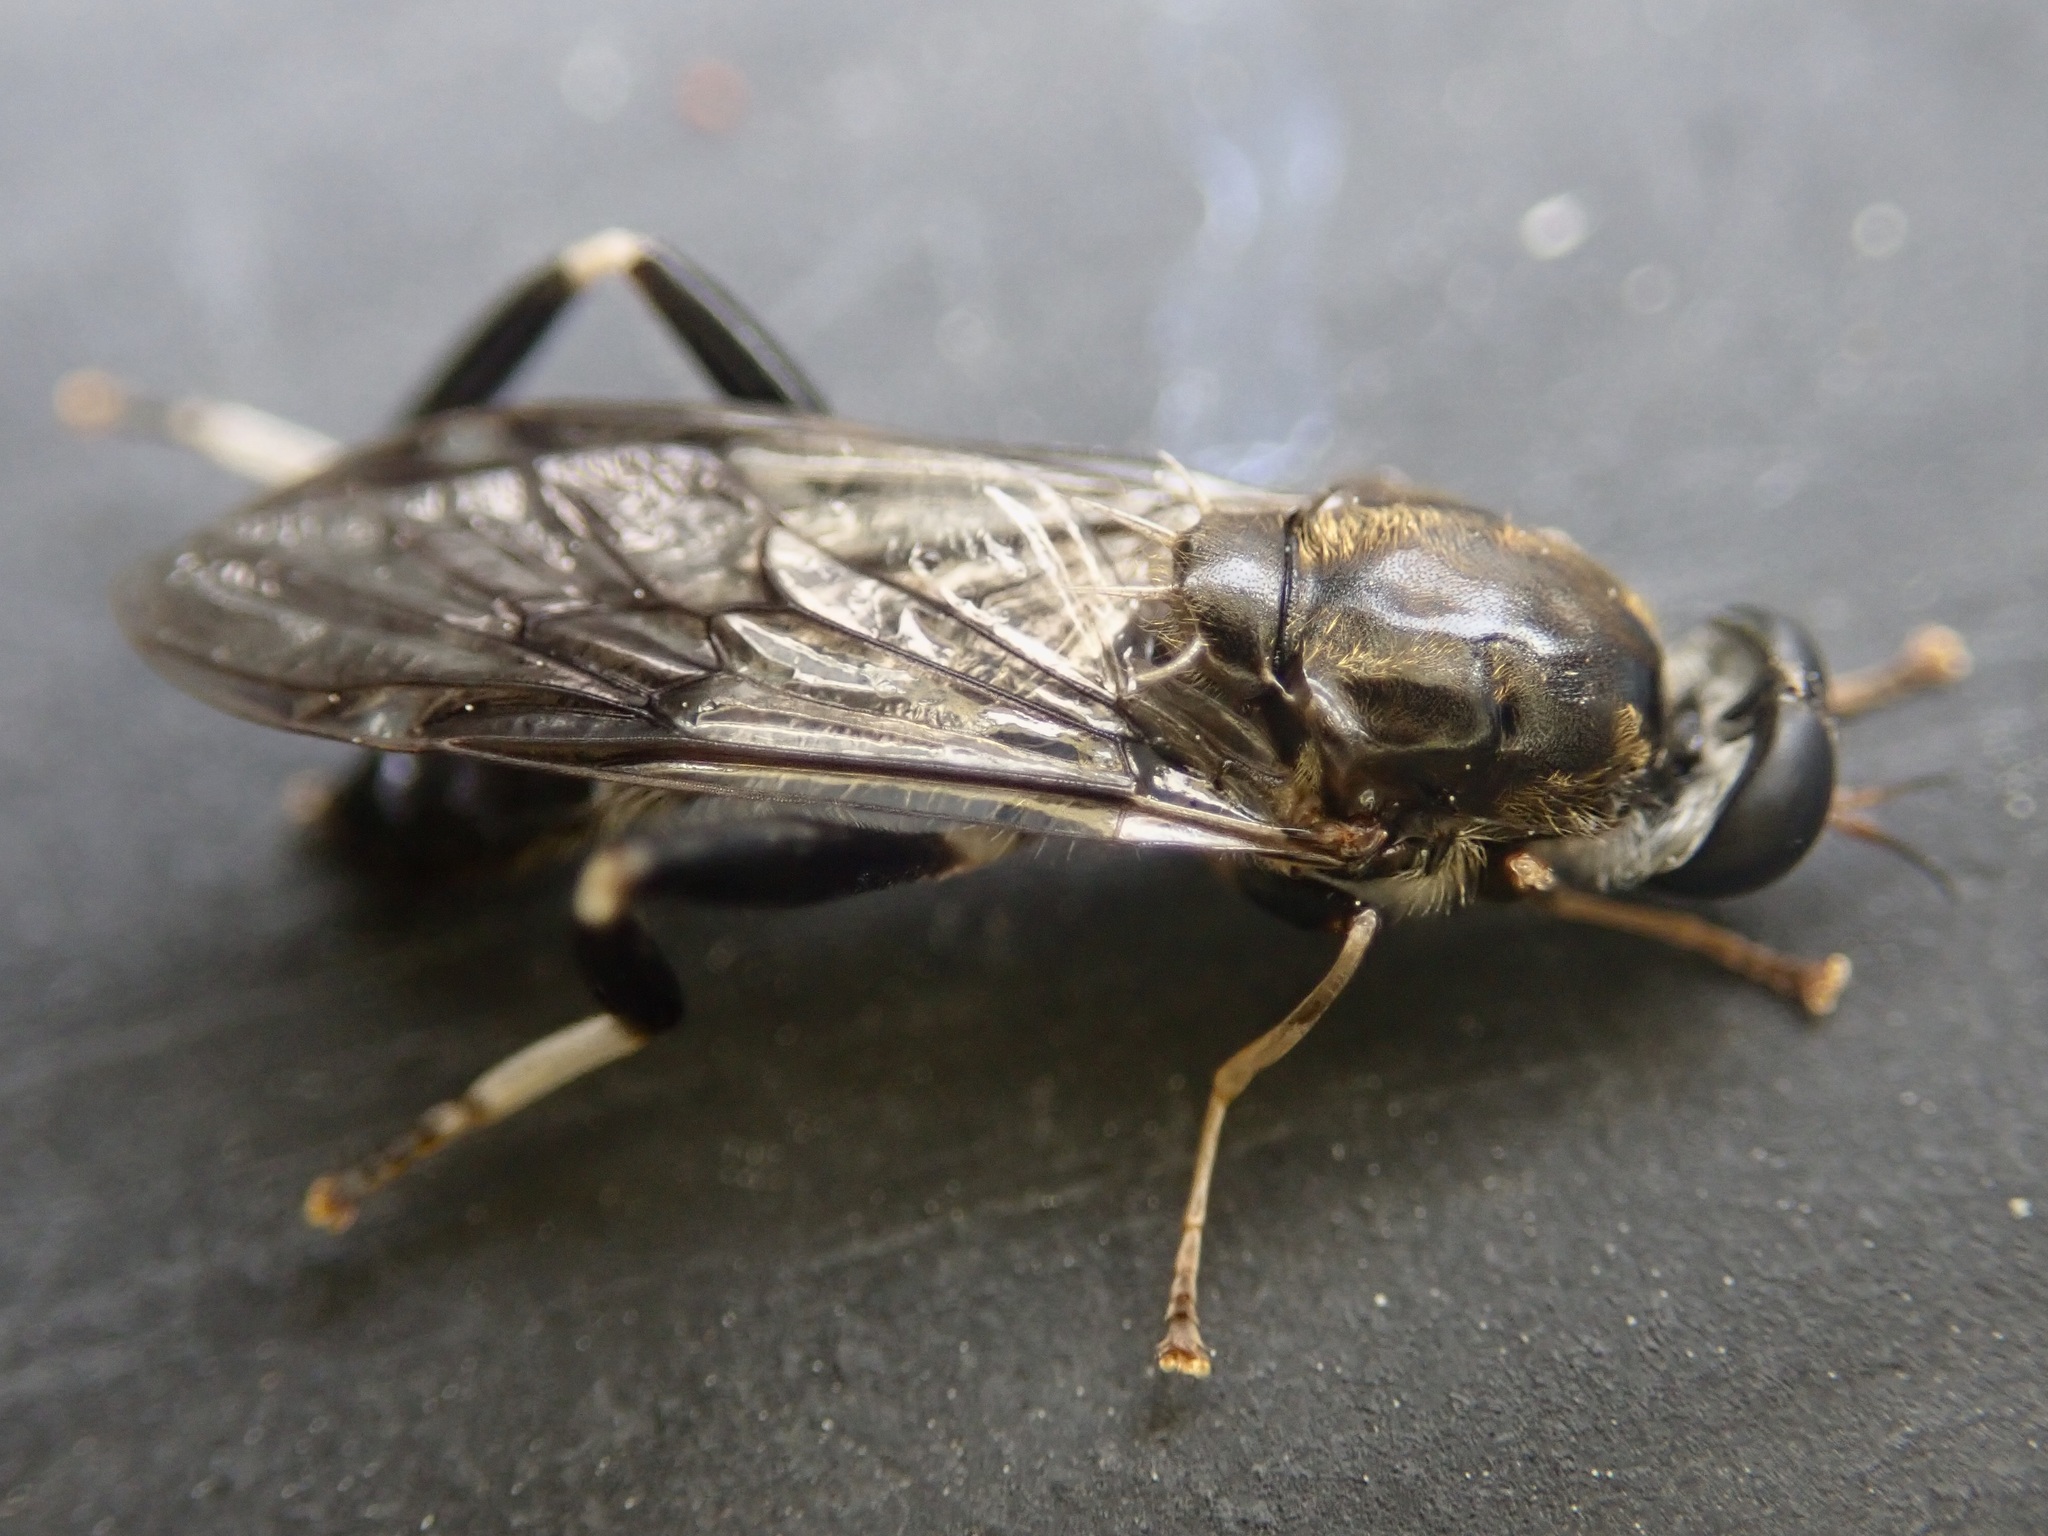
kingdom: Animalia
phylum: Arthropoda
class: Insecta
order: Diptera
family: Stratiomyidae
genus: Exaireta
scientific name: Exaireta spinigera
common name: Blue soldier fly
